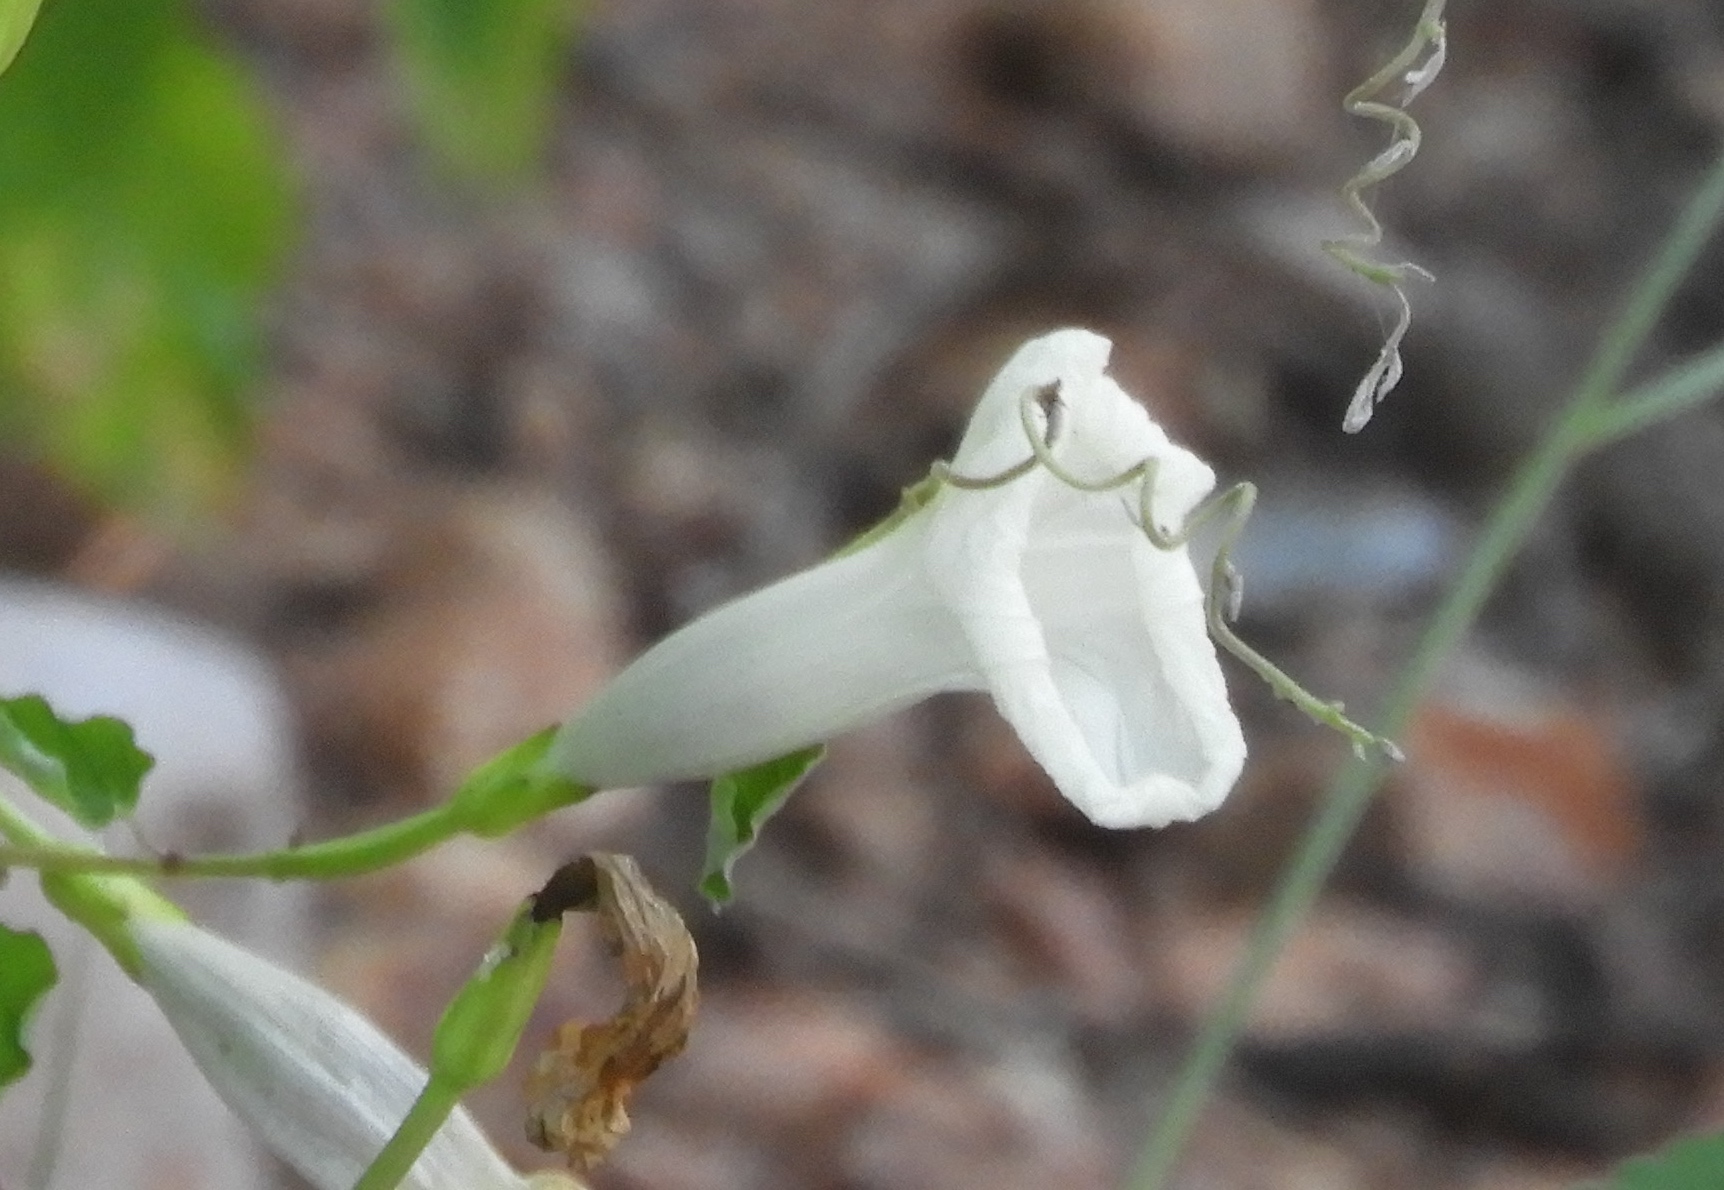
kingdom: Plantae
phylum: Tracheophyta
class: Magnoliopsida
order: Solanales
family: Convolvulaceae
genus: Ipomoea
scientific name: Ipomoea scopulorum
